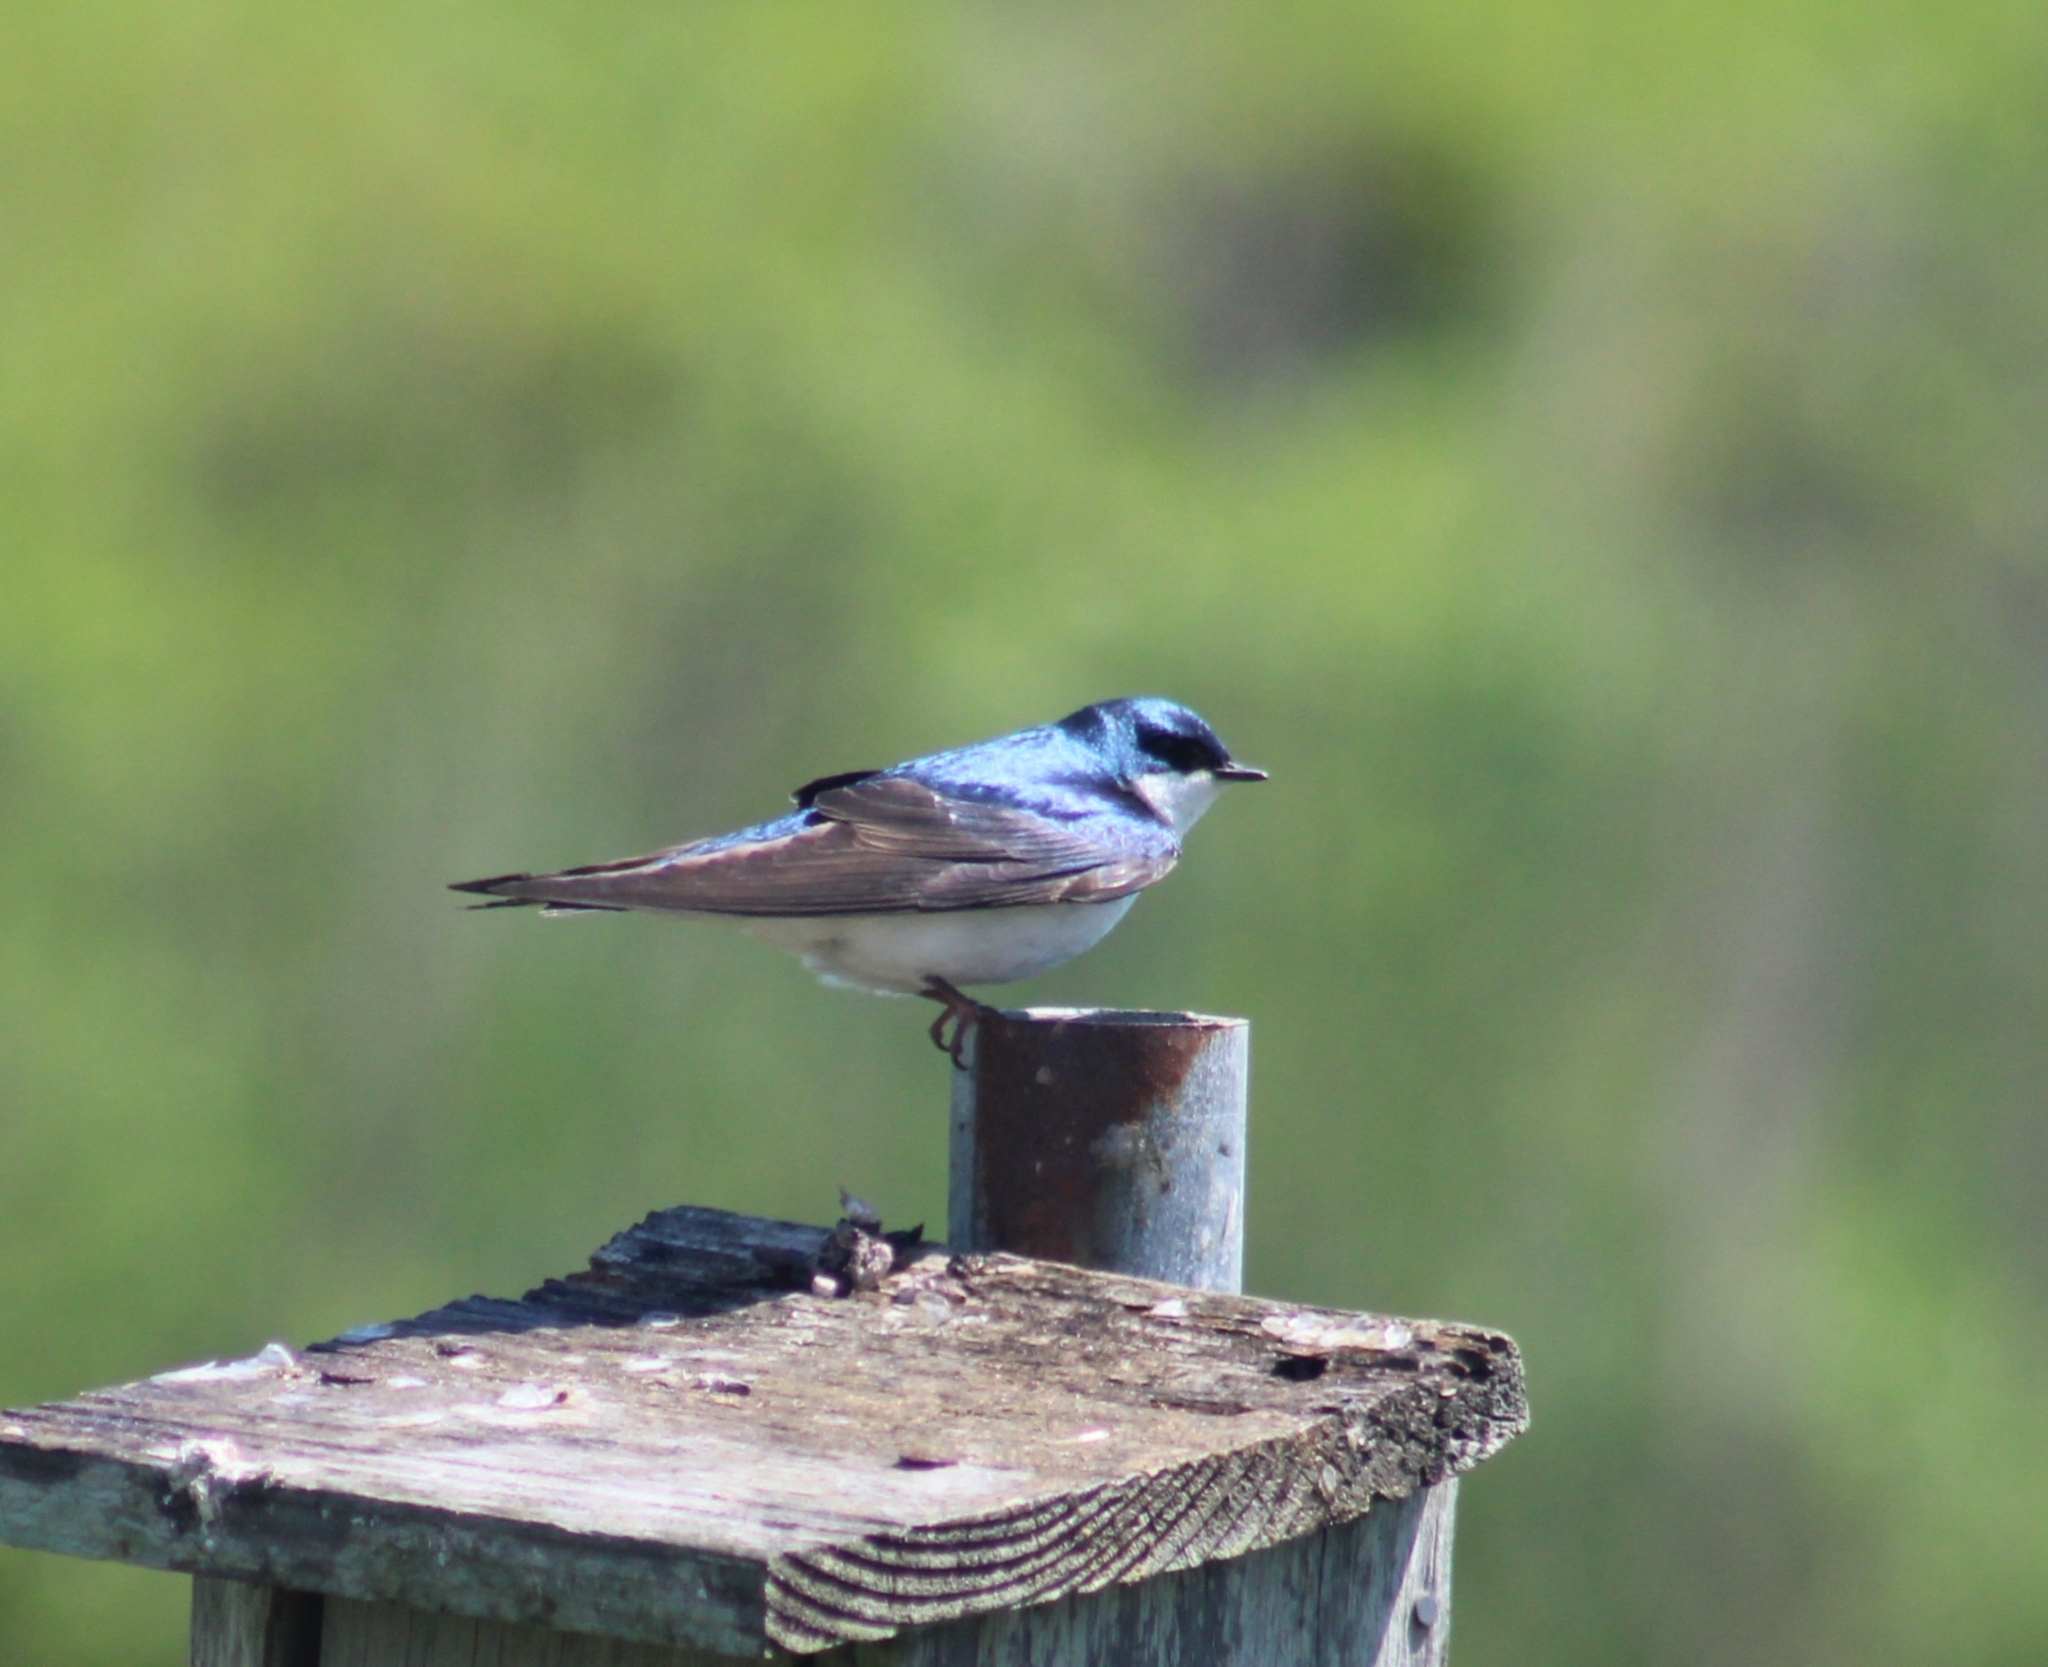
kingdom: Animalia
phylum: Chordata
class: Aves
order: Passeriformes
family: Hirundinidae
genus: Tachycineta
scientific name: Tachycineta bicolor
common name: Tree swallow
